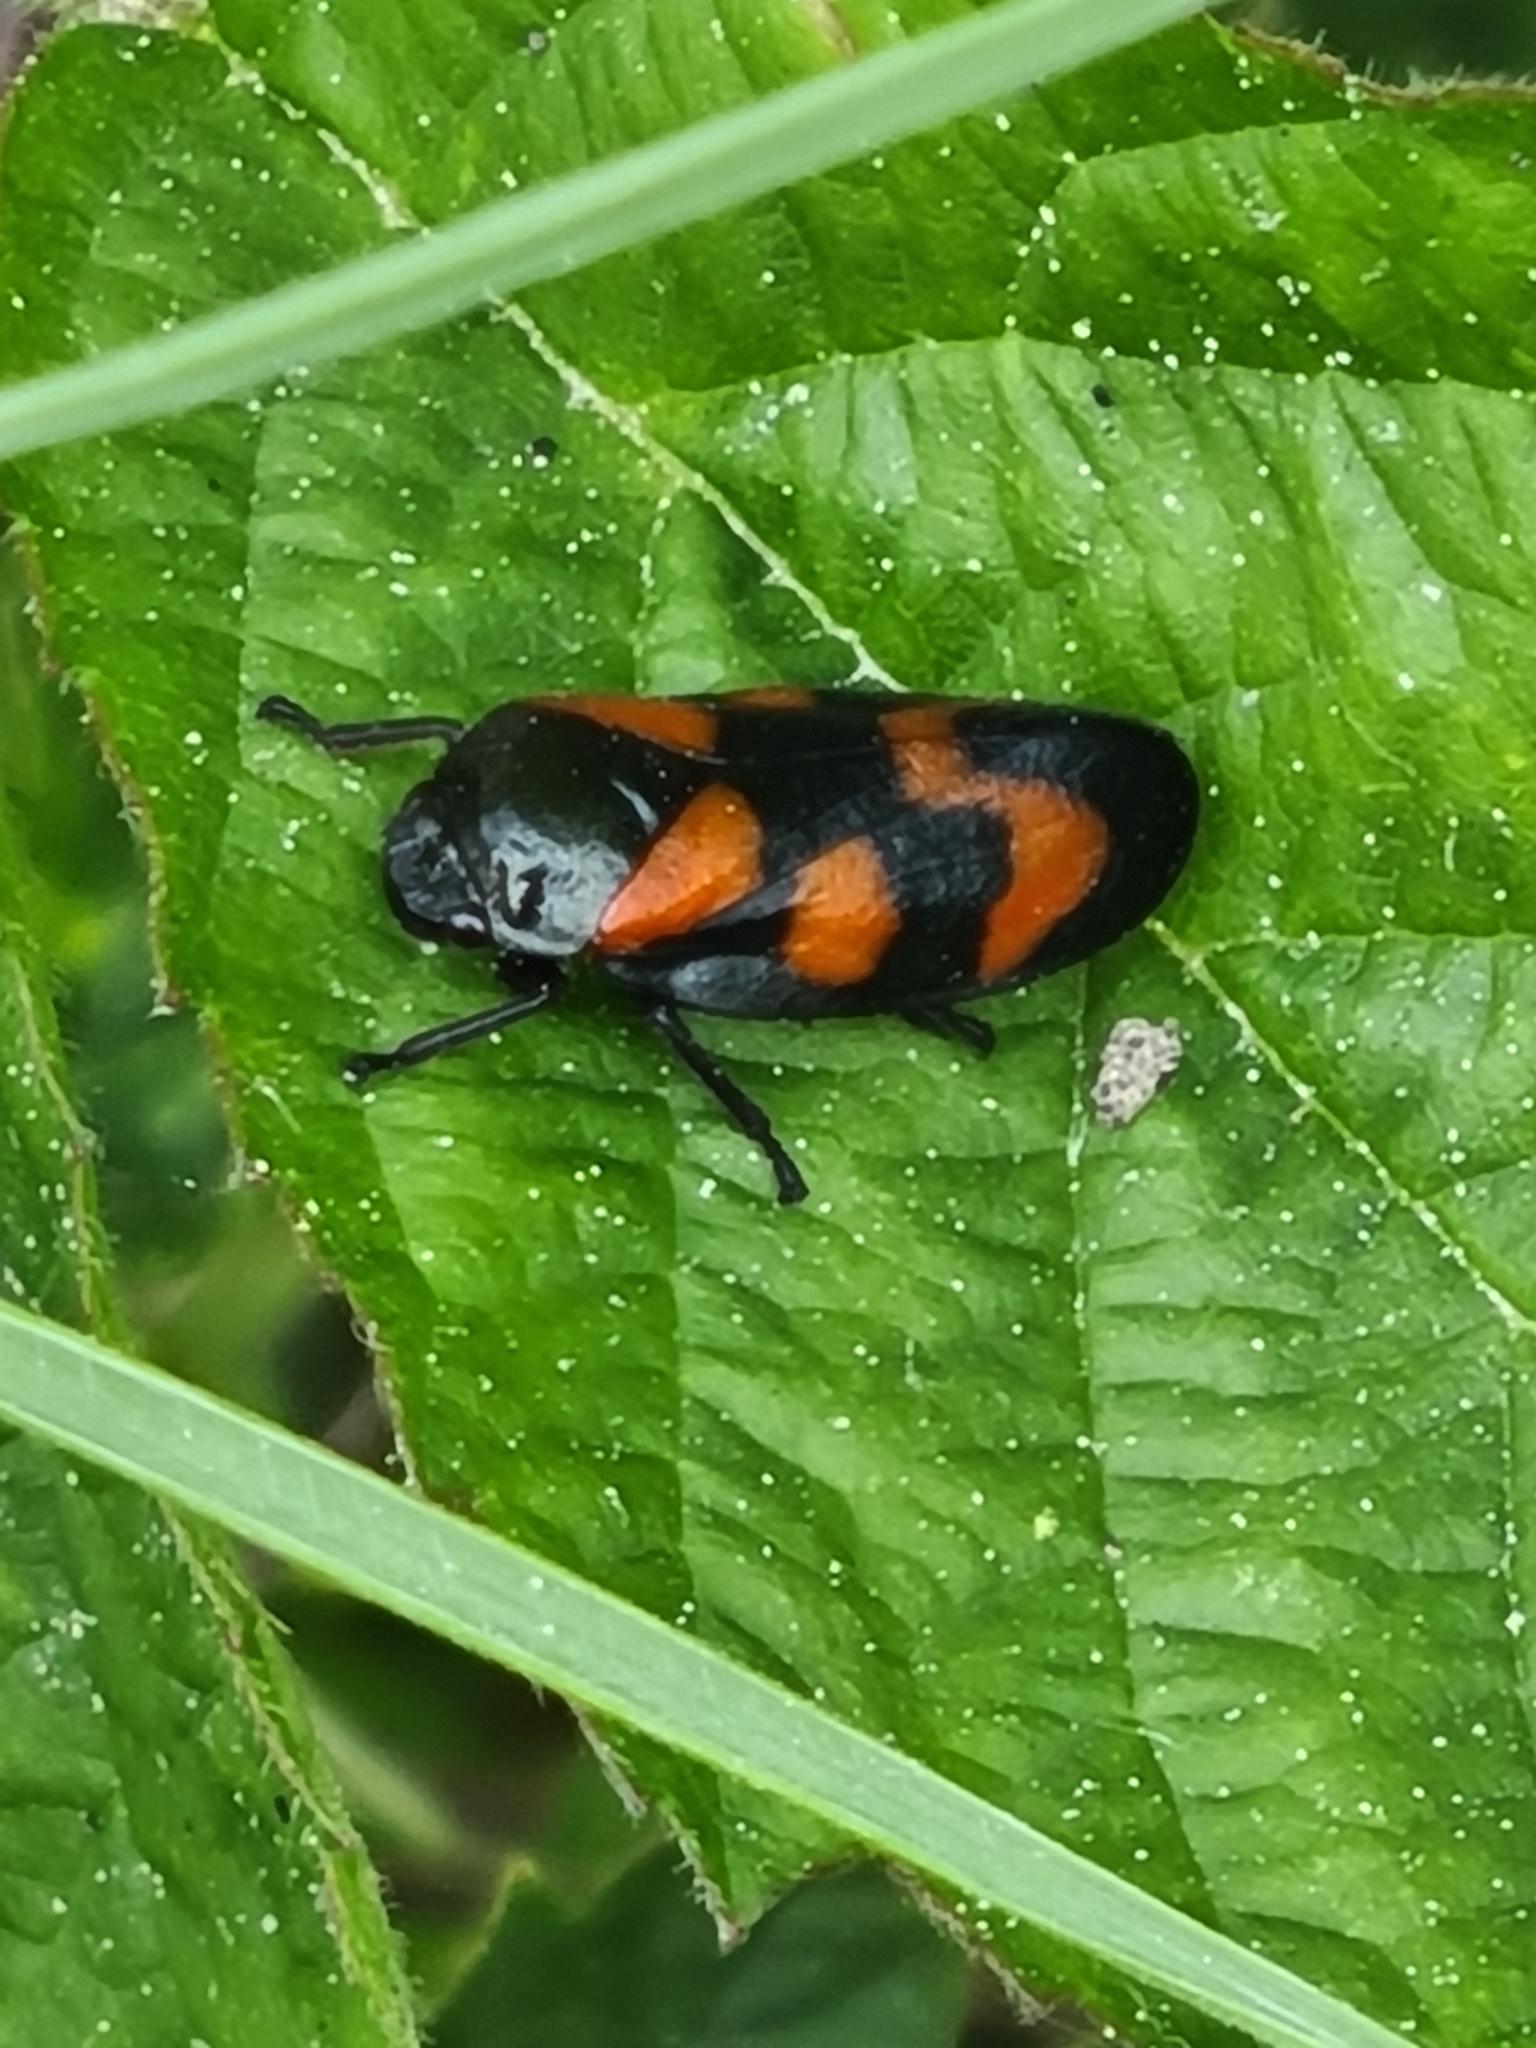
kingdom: Animalia
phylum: Arthropoda
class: Insecta
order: Hemiptera
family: Cercopidae
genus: Cercopis
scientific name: Cercopis vulnerata
